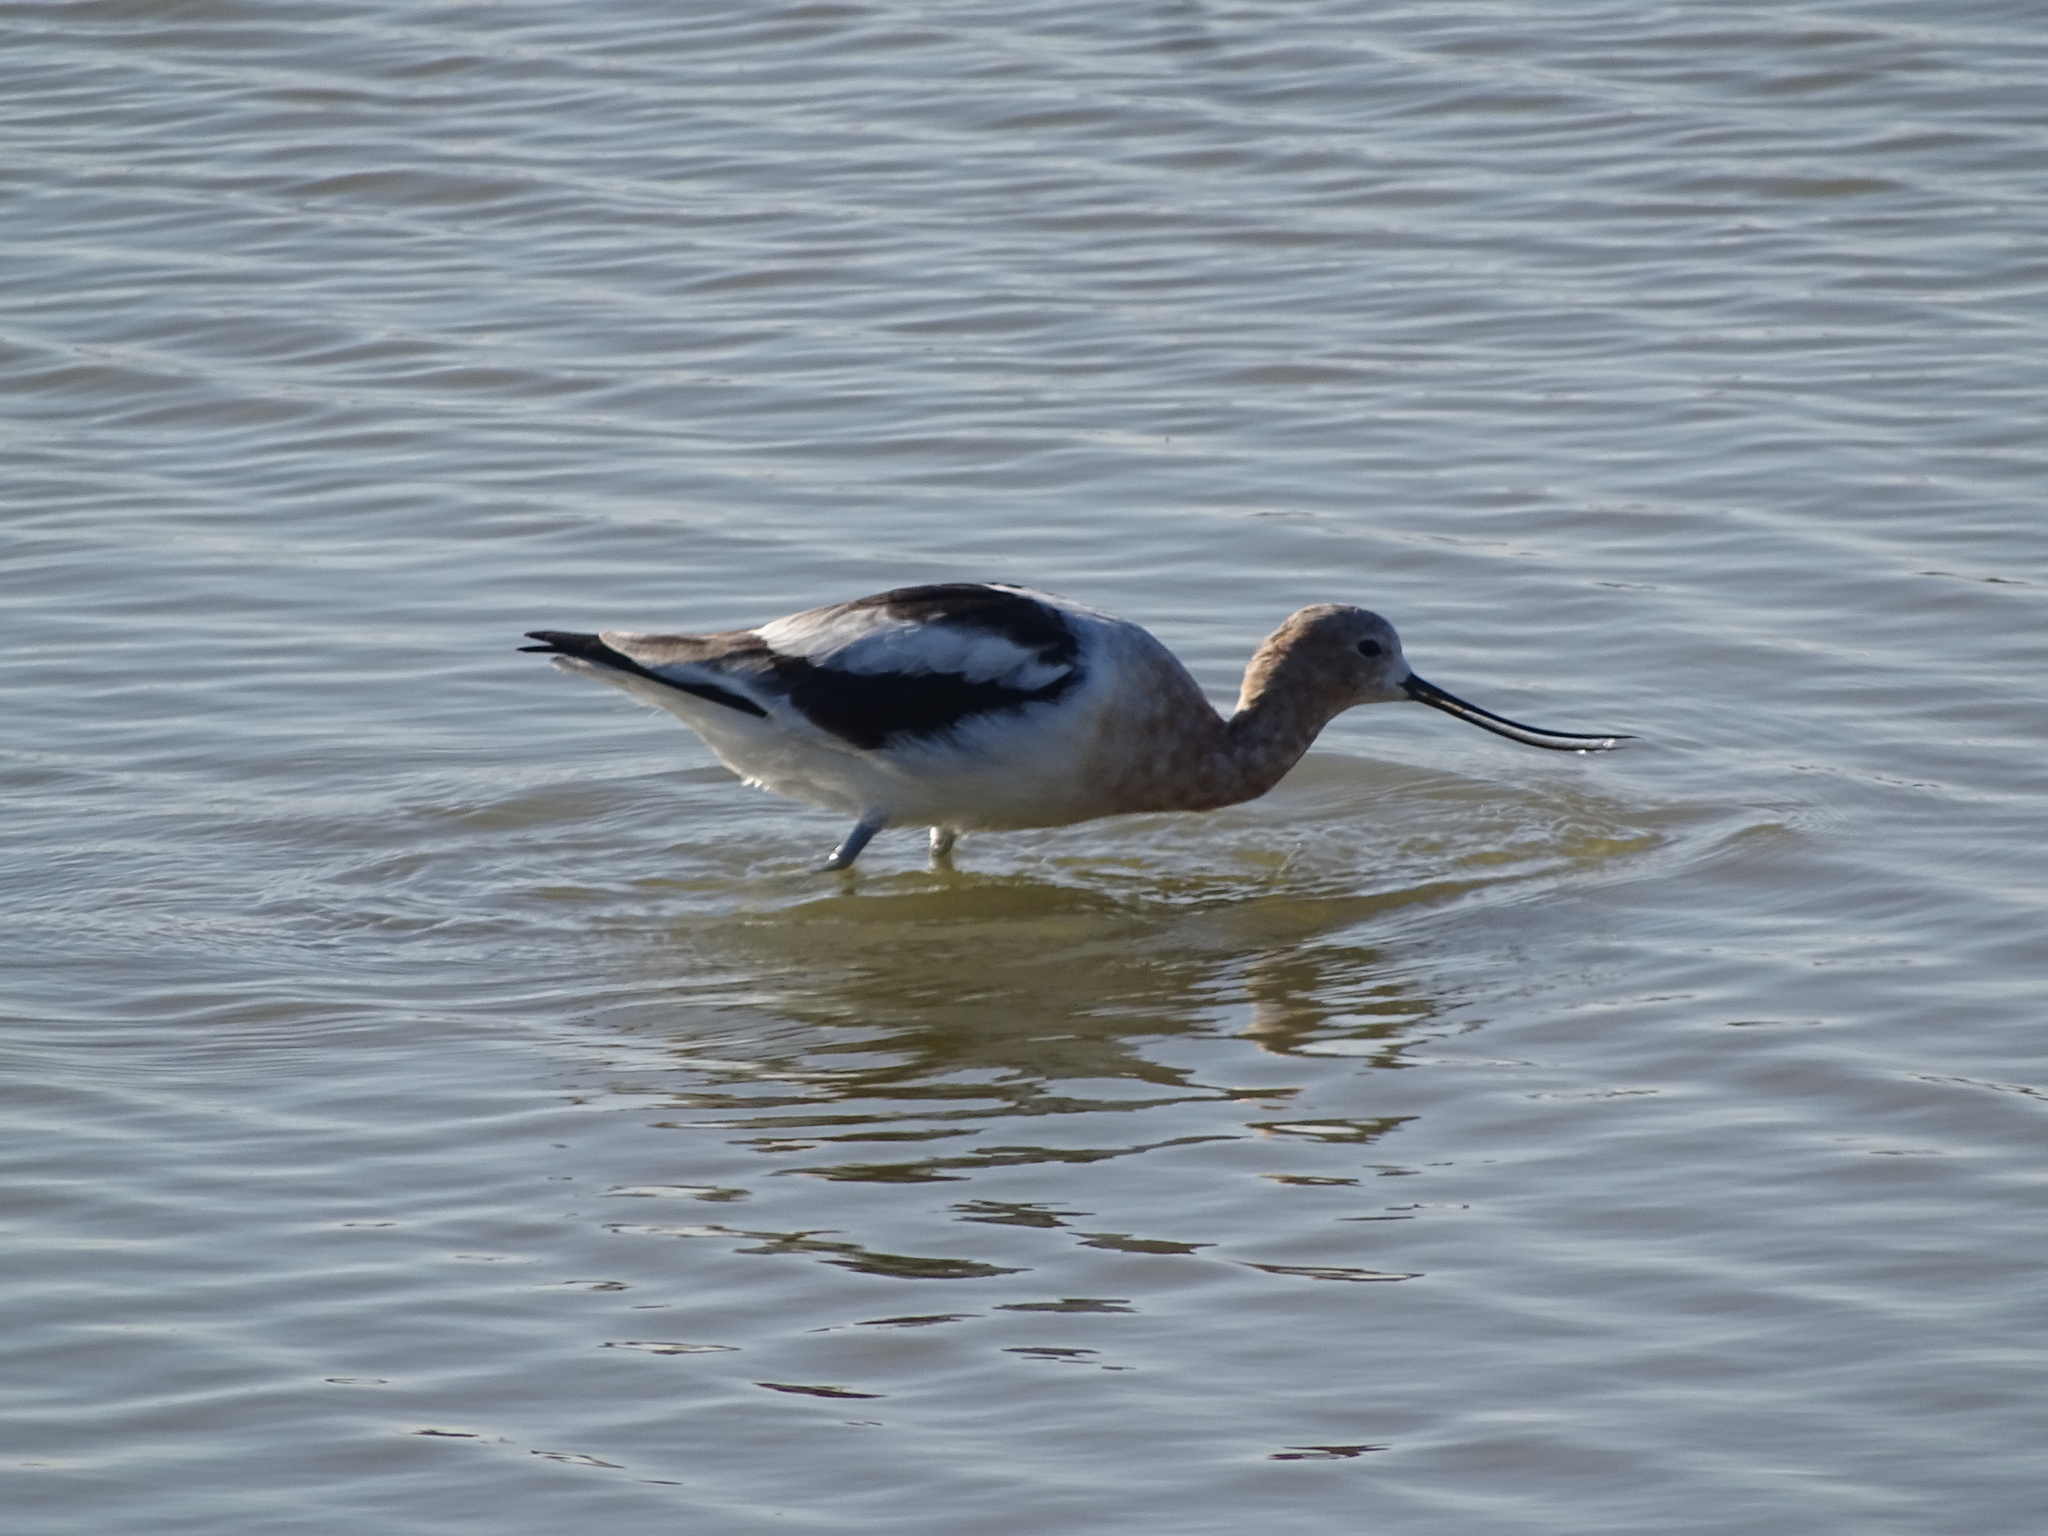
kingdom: Animalia
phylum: Chordata
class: Aves
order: Charadriiformes
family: Recurvirostridae
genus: Recurvirostra
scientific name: Recurvirostra americana
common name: American avocet
